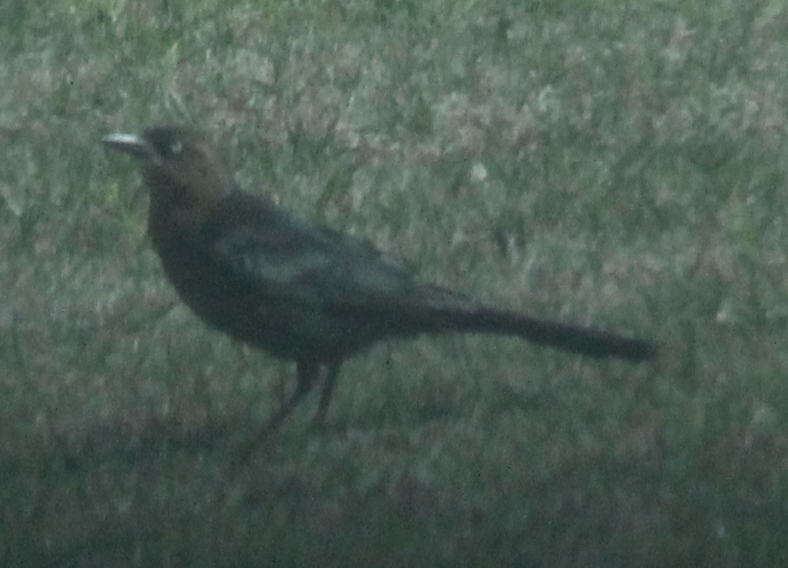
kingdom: Animalia
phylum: Chordata
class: Aves
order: Passeriformes
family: Icteridae
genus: Quiscalus
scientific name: Quiscalus mexicanus
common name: Great-tailed grackle
